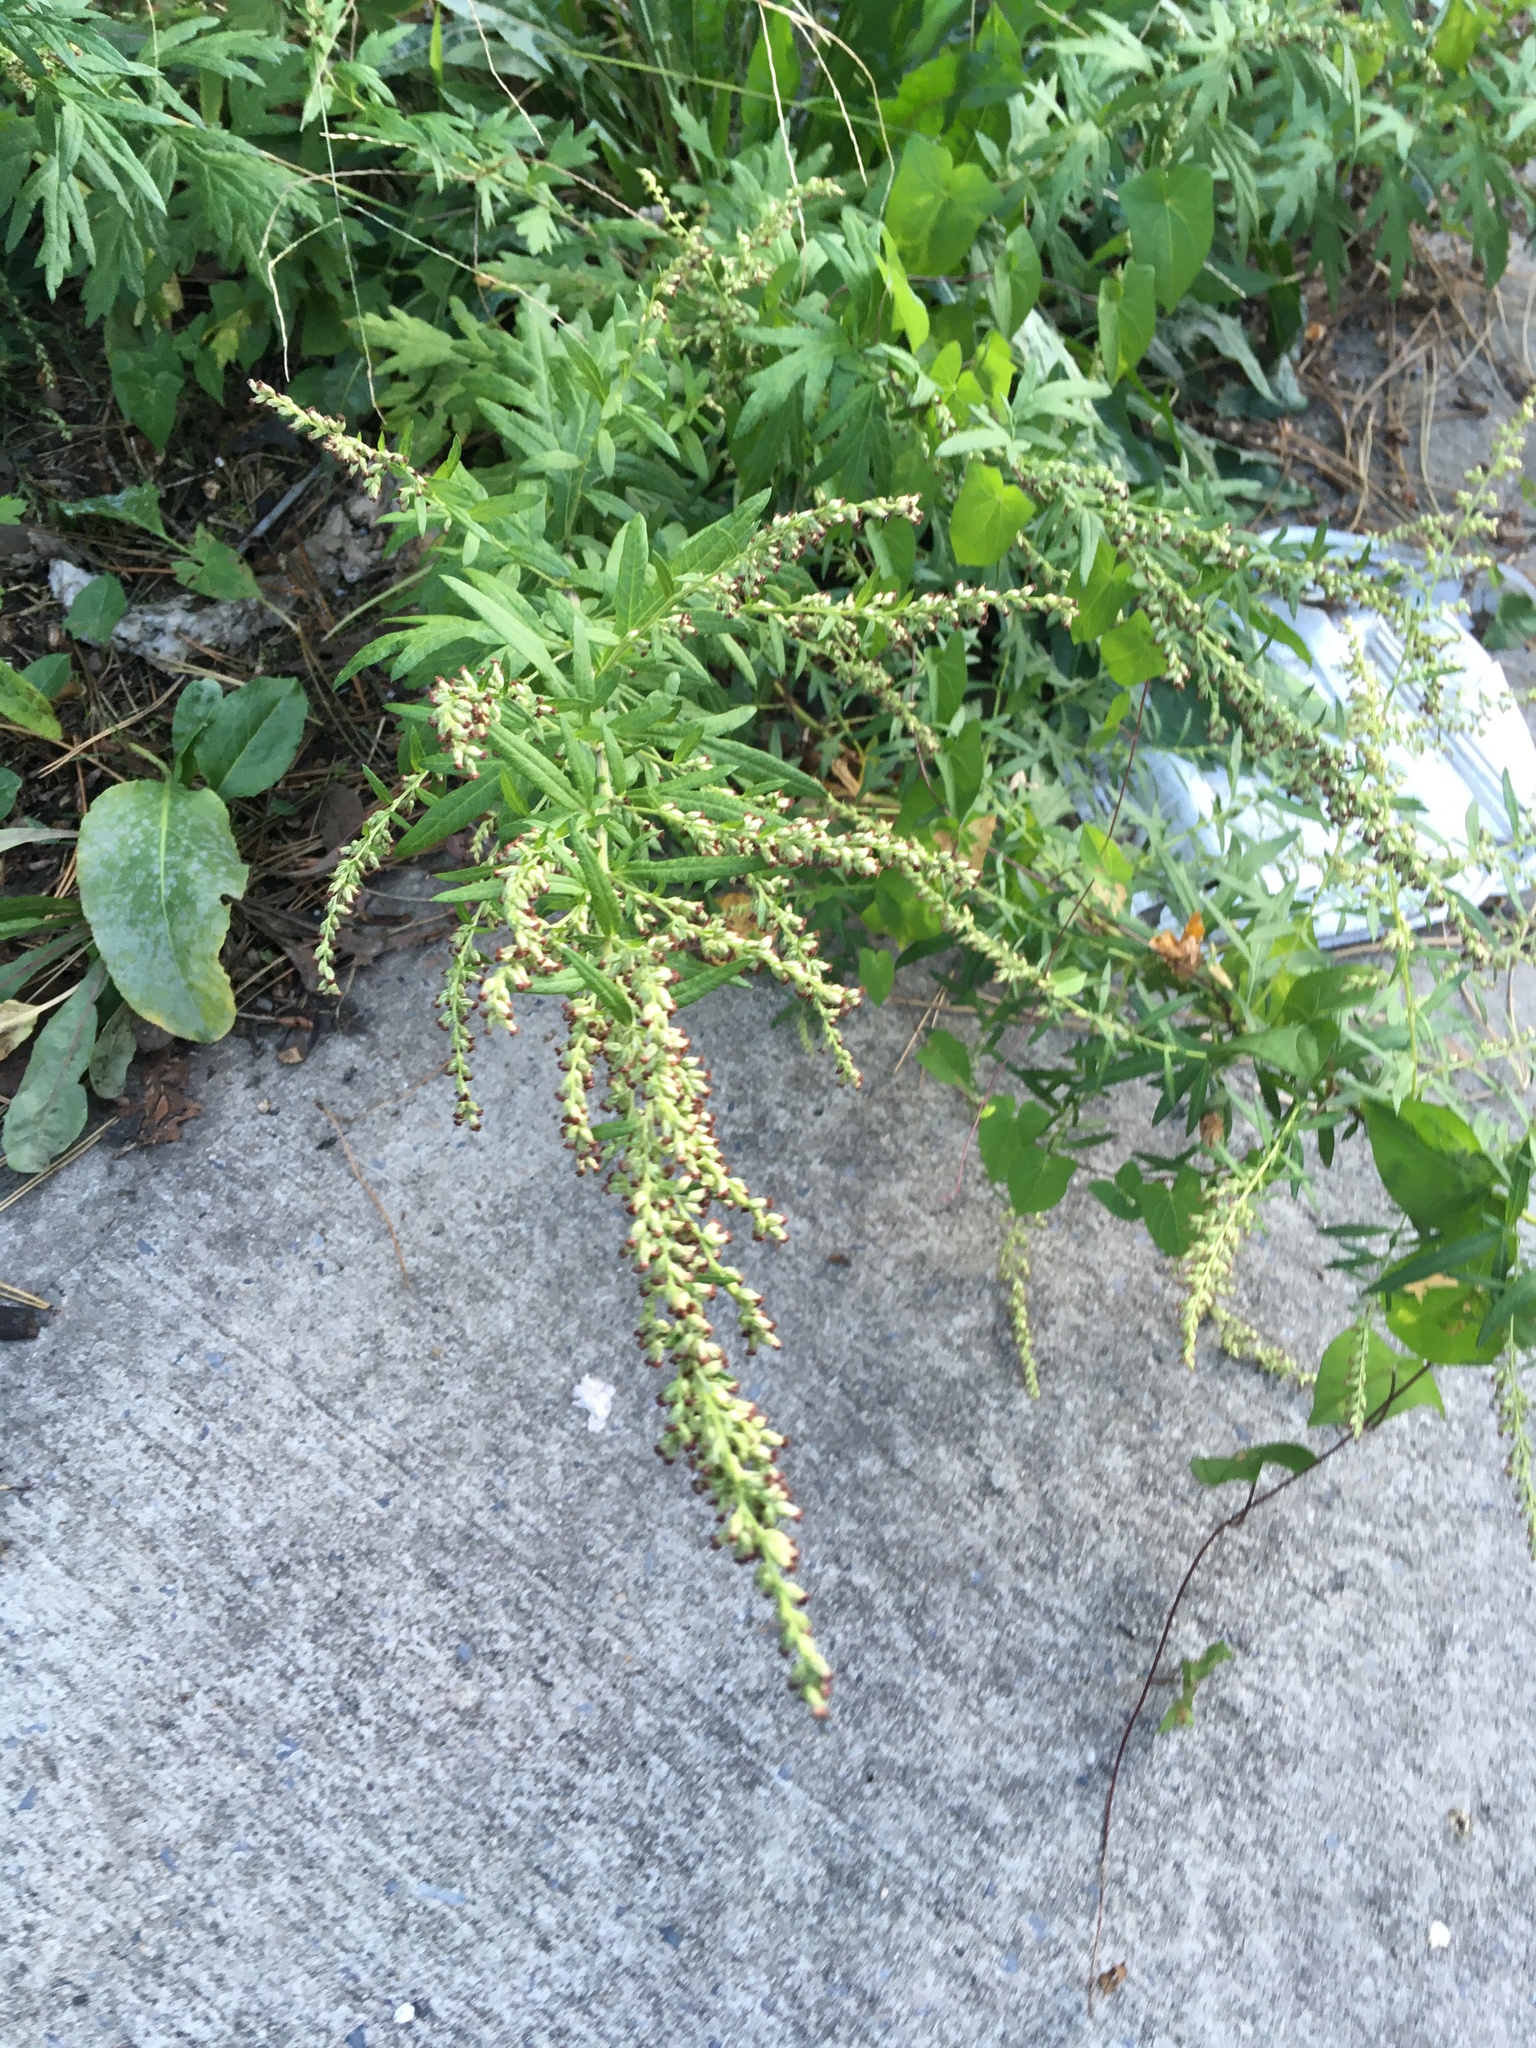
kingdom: Plantae
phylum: Tracheophyta
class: Magnoliopsida
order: Asterales
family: Asteraceae
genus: Artemisia
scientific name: Artemisia vulgaris
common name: Mugwort
